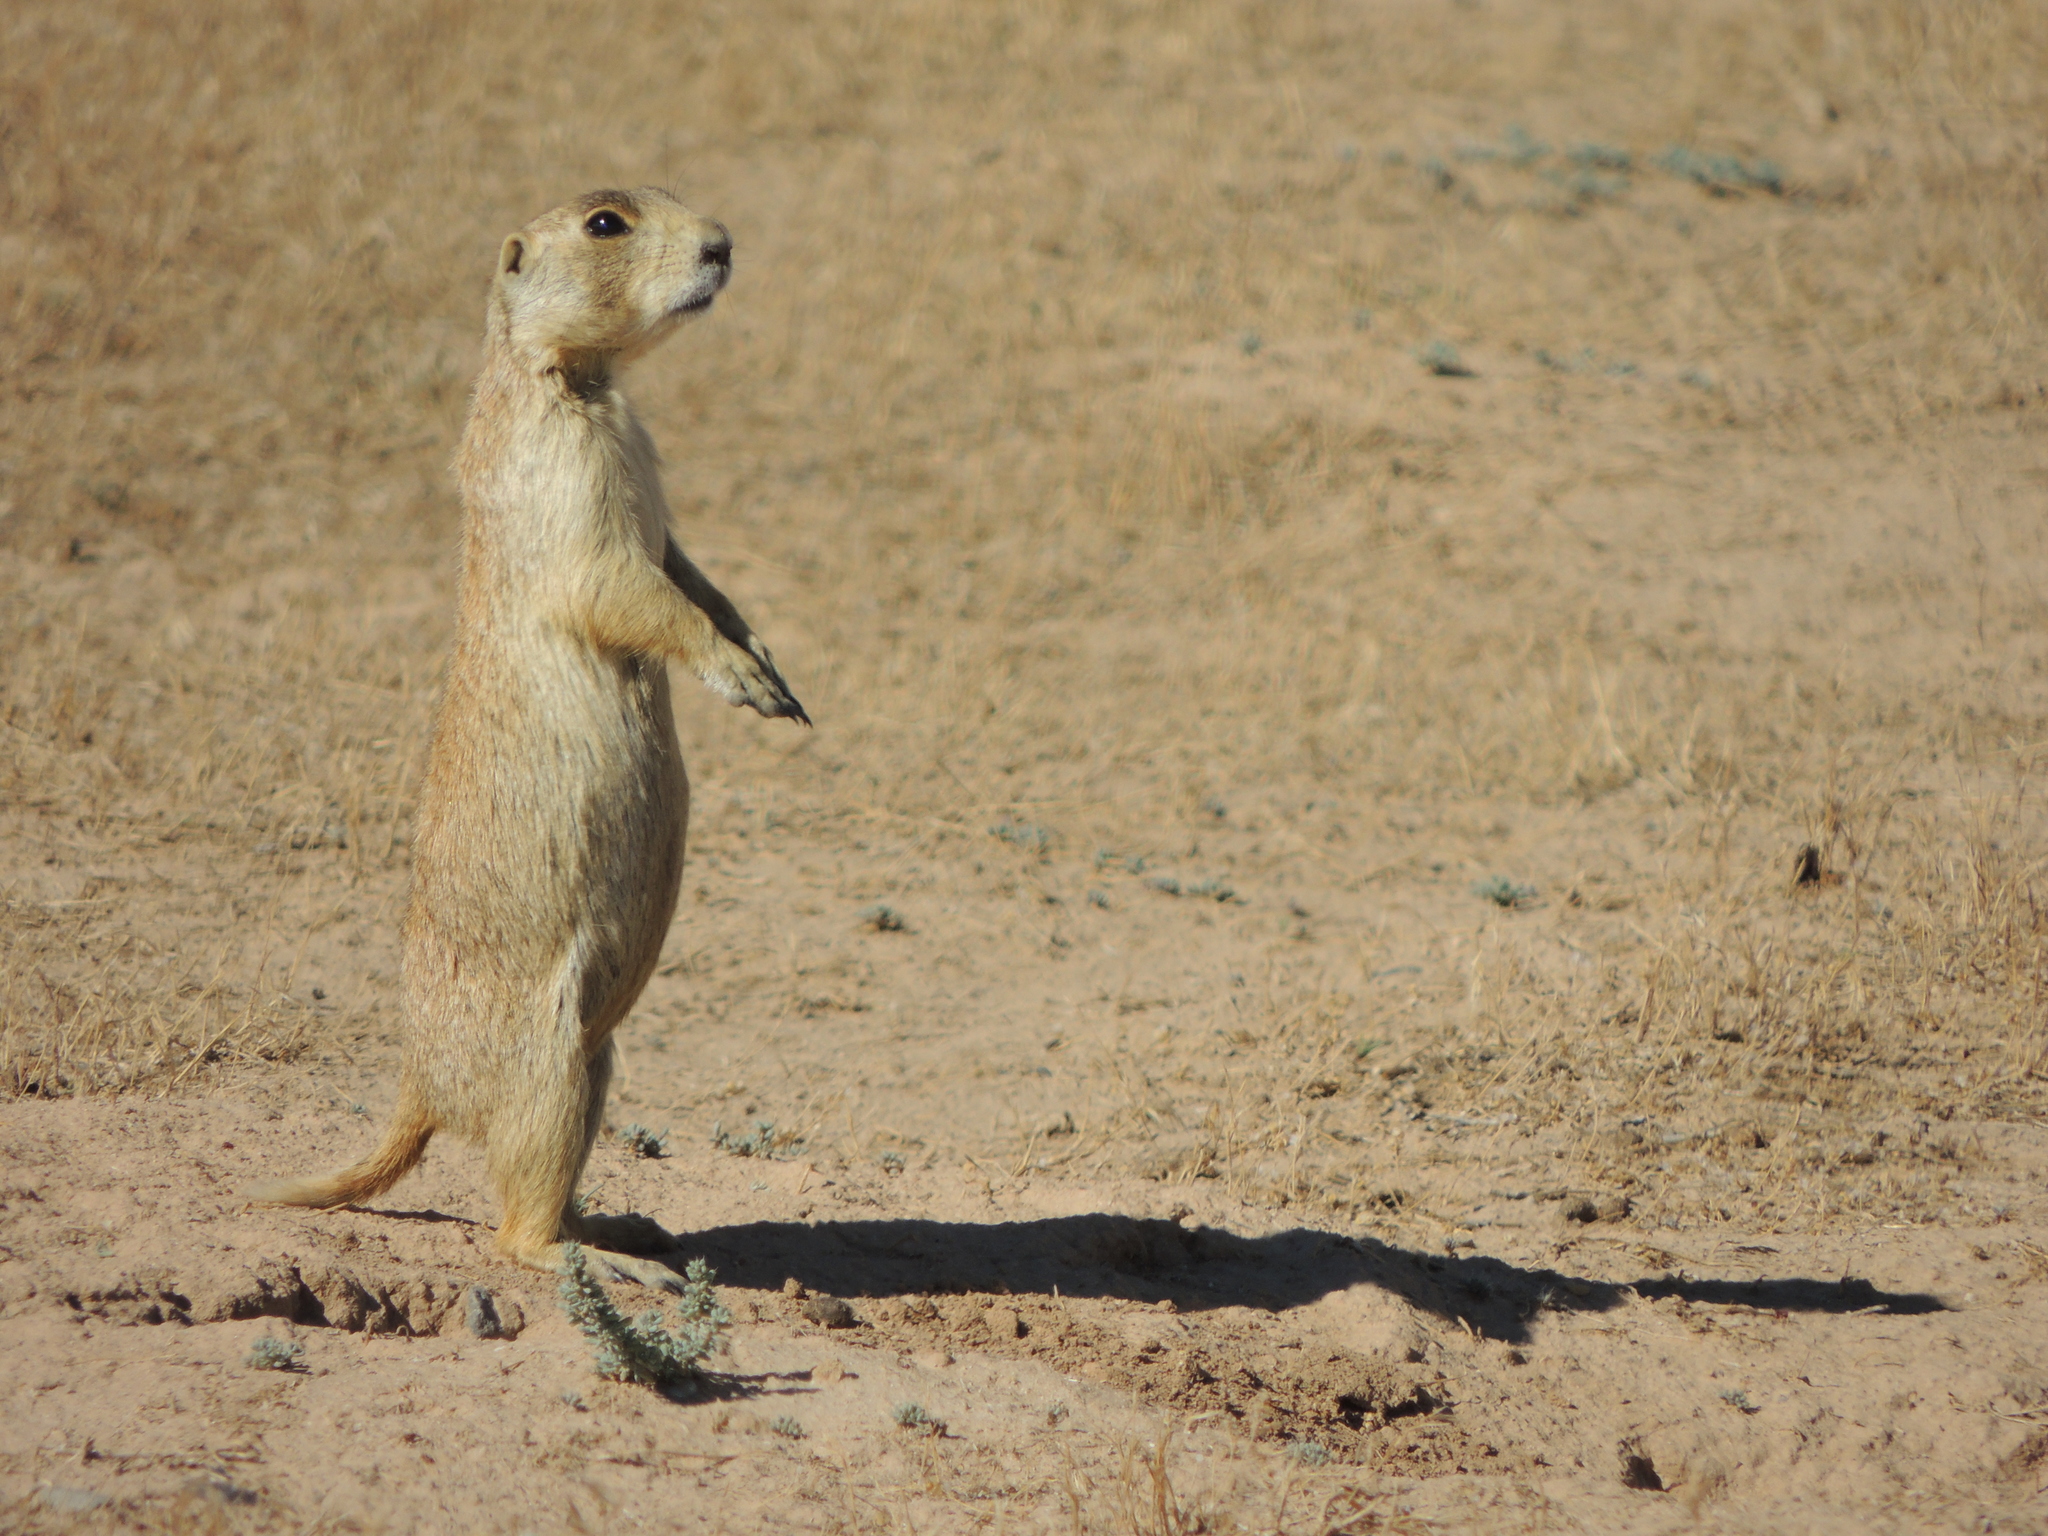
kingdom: Animalia
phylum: Chordata
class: Mammalia
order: Rodentia
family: Sciuridae
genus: Cynomys
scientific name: Cynomys leucurus
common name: White-tailed prairie dog
